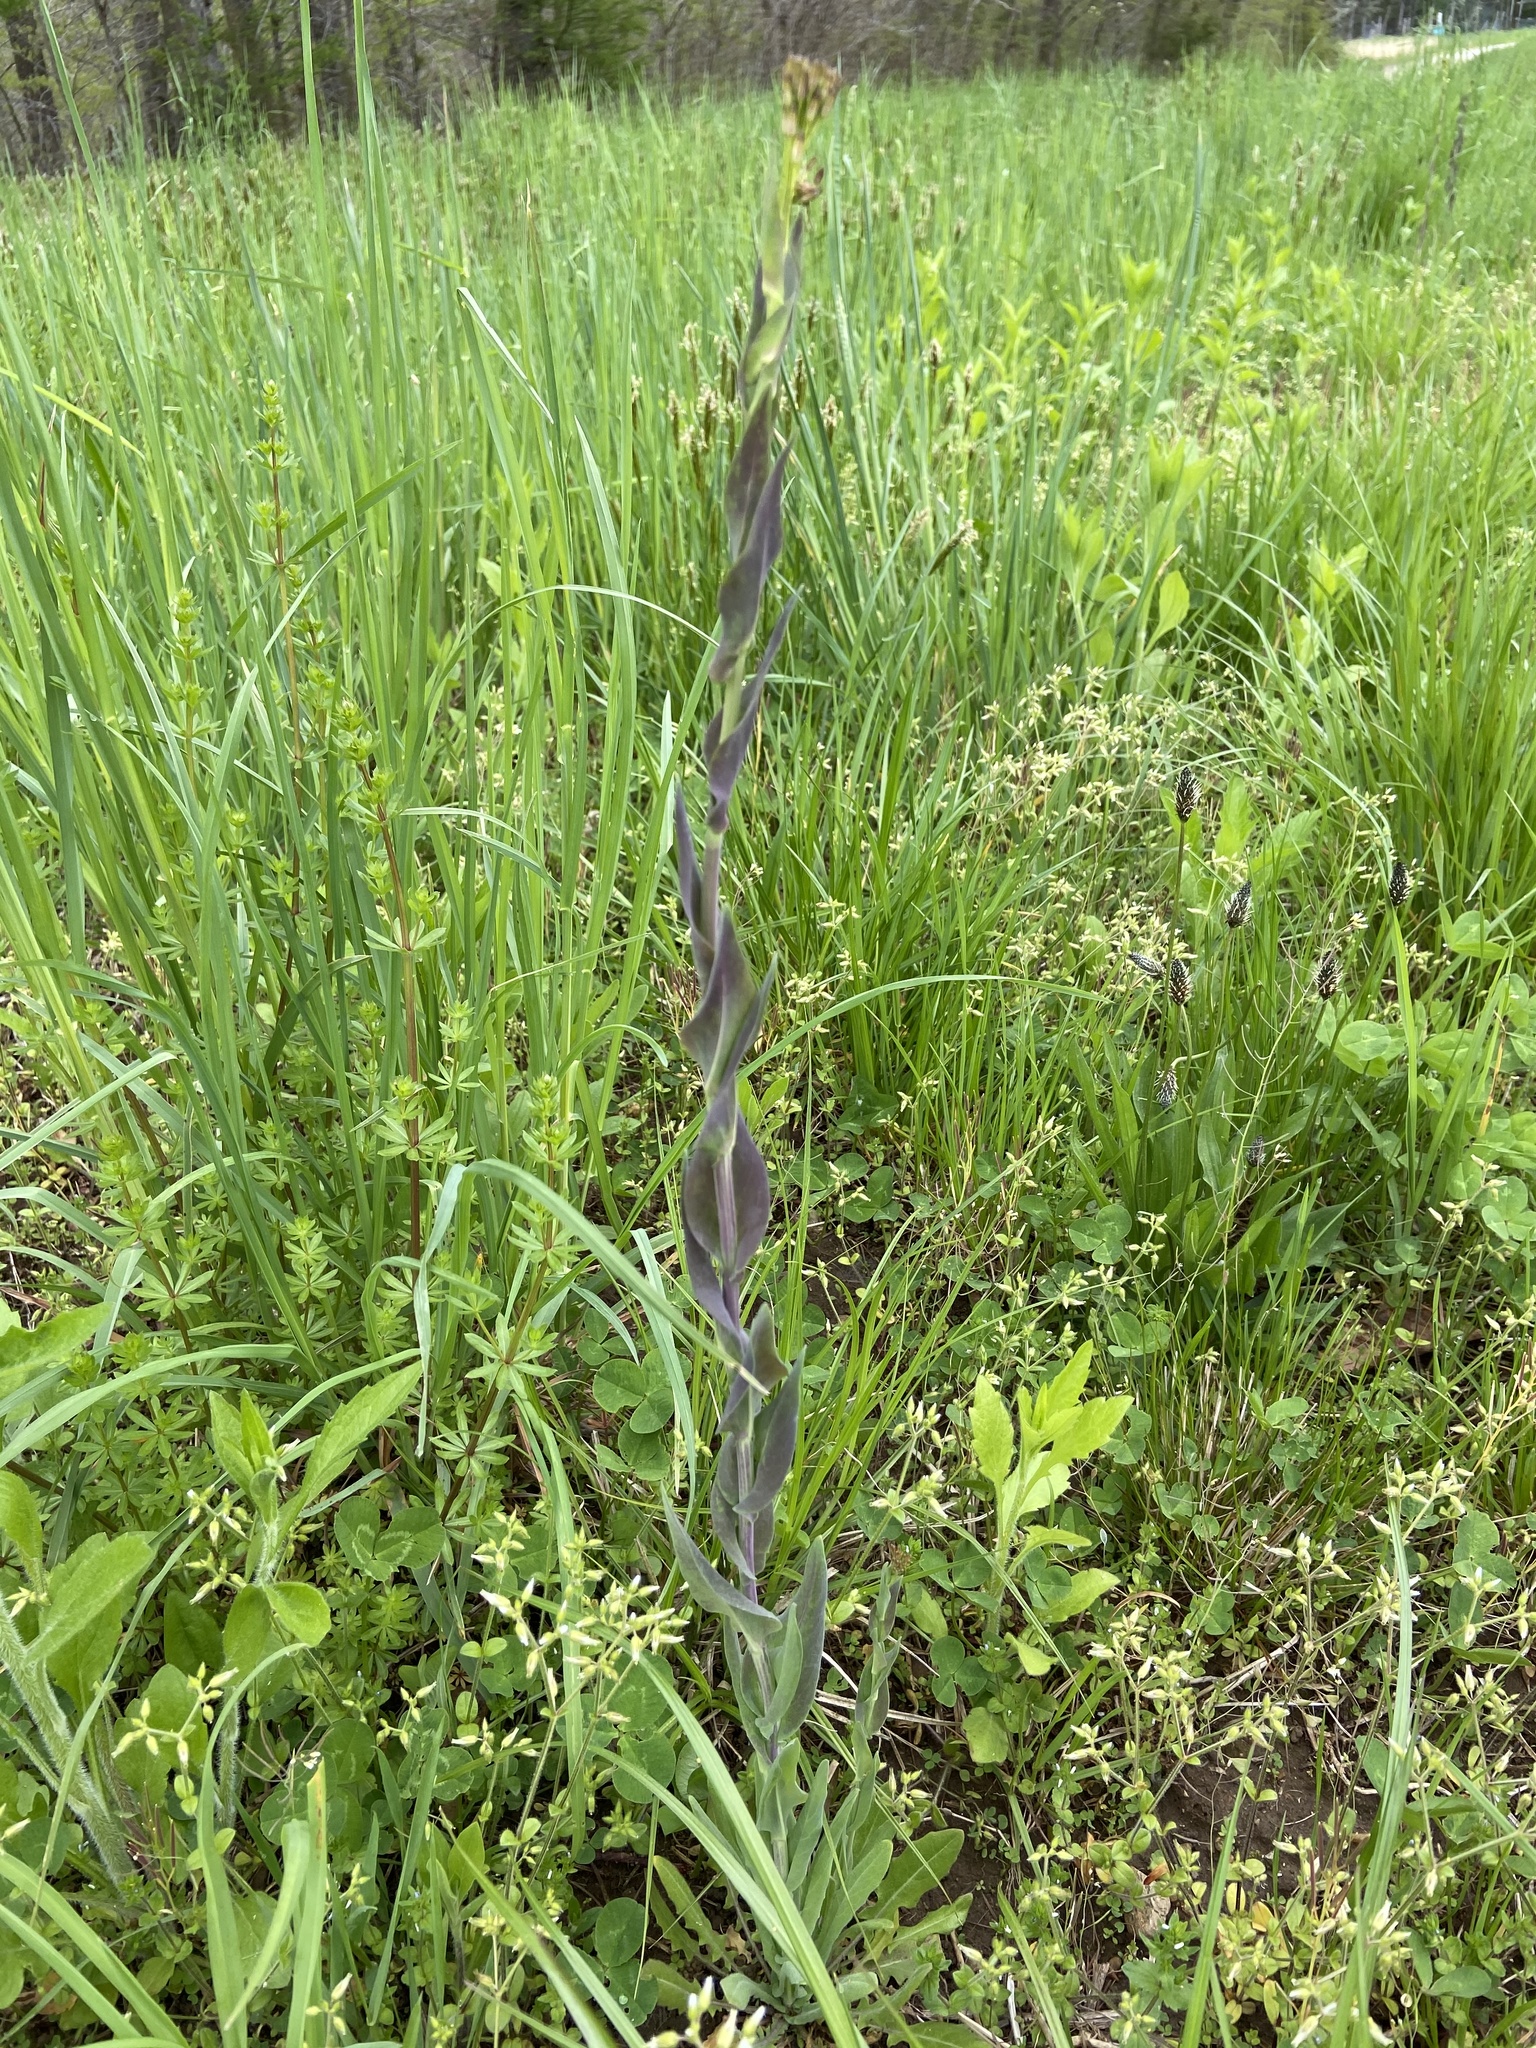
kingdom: Plantae
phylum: Tracheophyta
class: Magnoliopsida
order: Caryophyllales
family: Caryophyllaceae
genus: Silene
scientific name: Silene latifolia
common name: White campion
